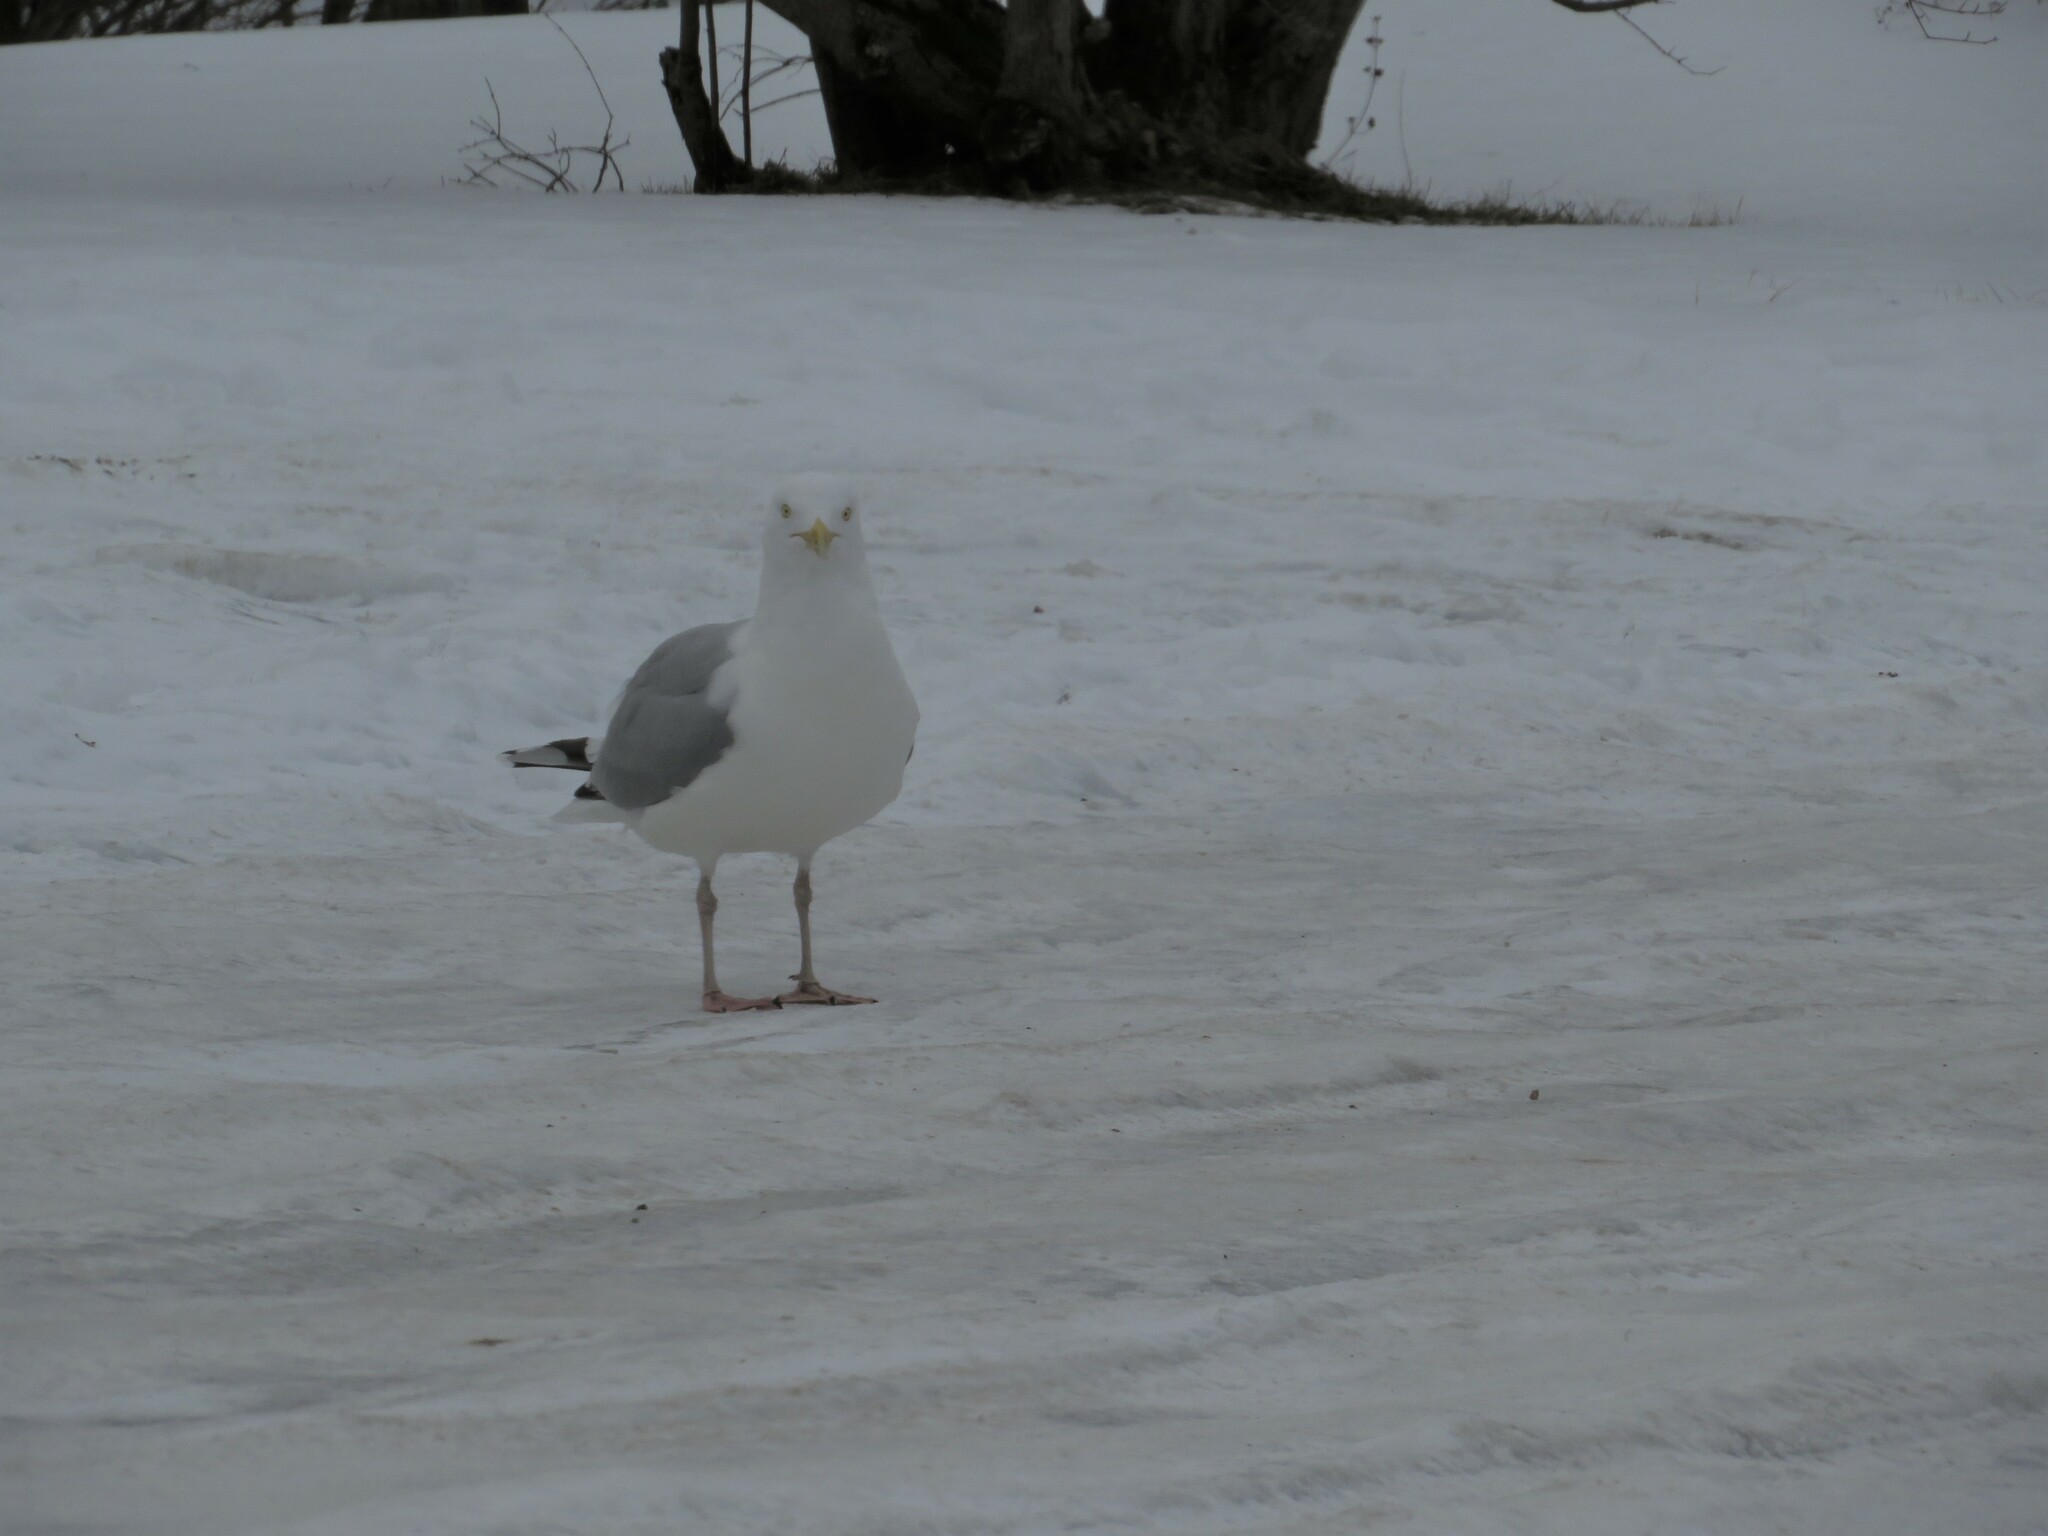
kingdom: Animalia
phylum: Chordata
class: Aves
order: Charadriiformes
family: Laridae
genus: Larus
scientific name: Larus argentatus
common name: Herring gull
